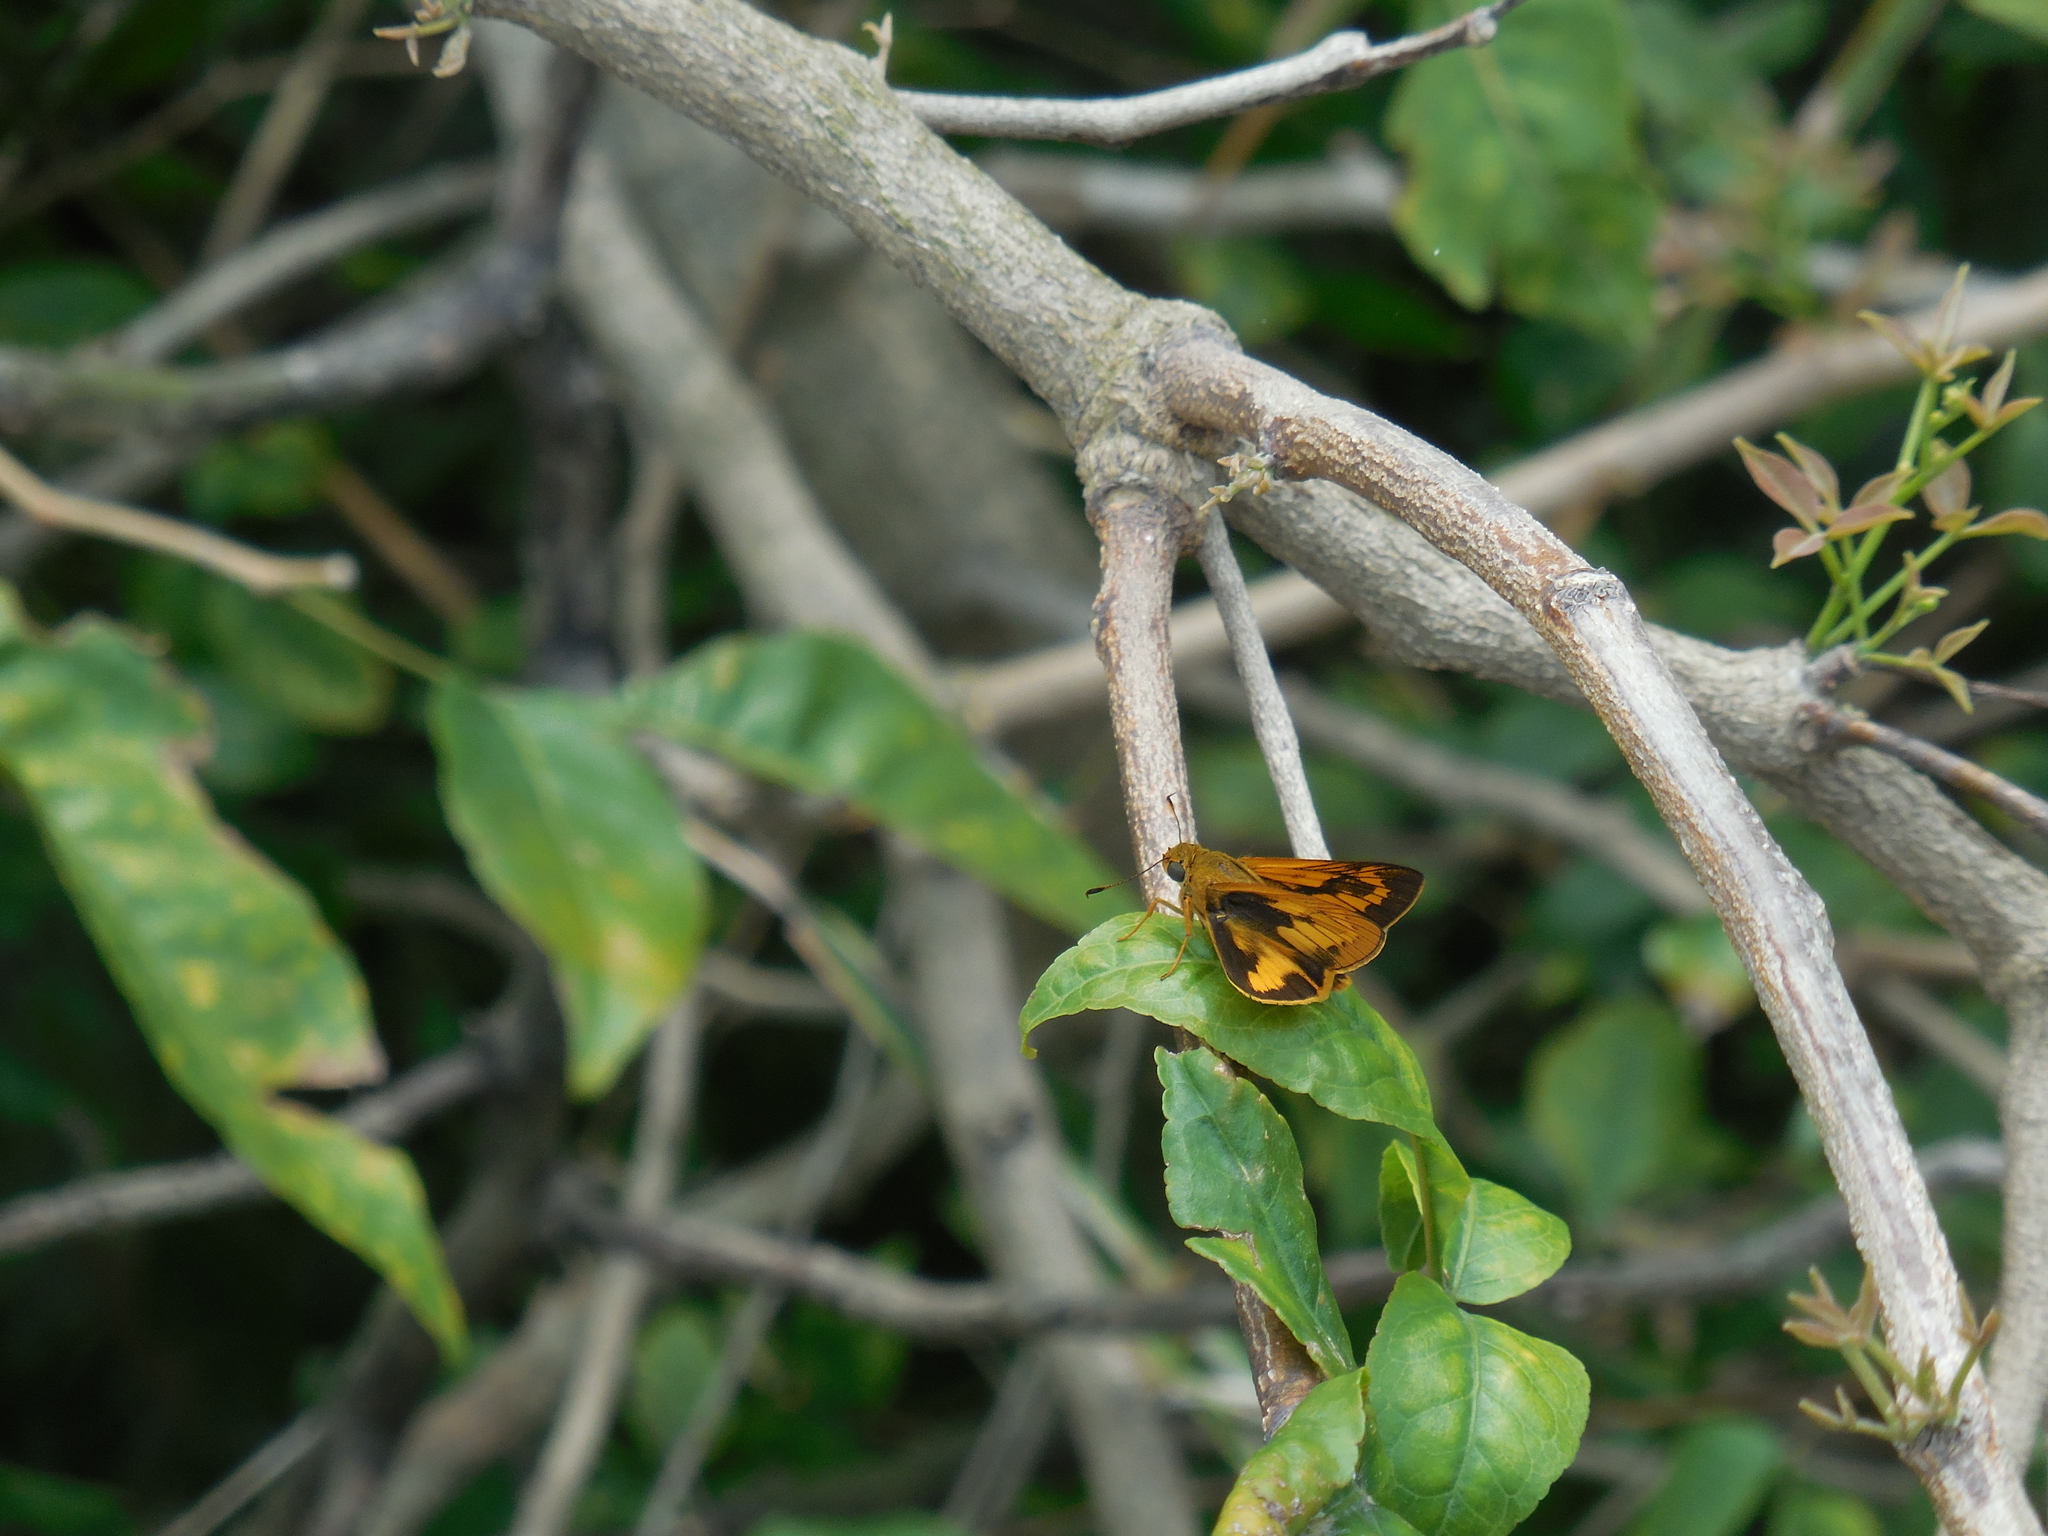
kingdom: Animalia
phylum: Arthropoda
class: Insecta
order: Lepidoptera
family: Hesperiidae
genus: Telicota
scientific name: Telicota bambusae
